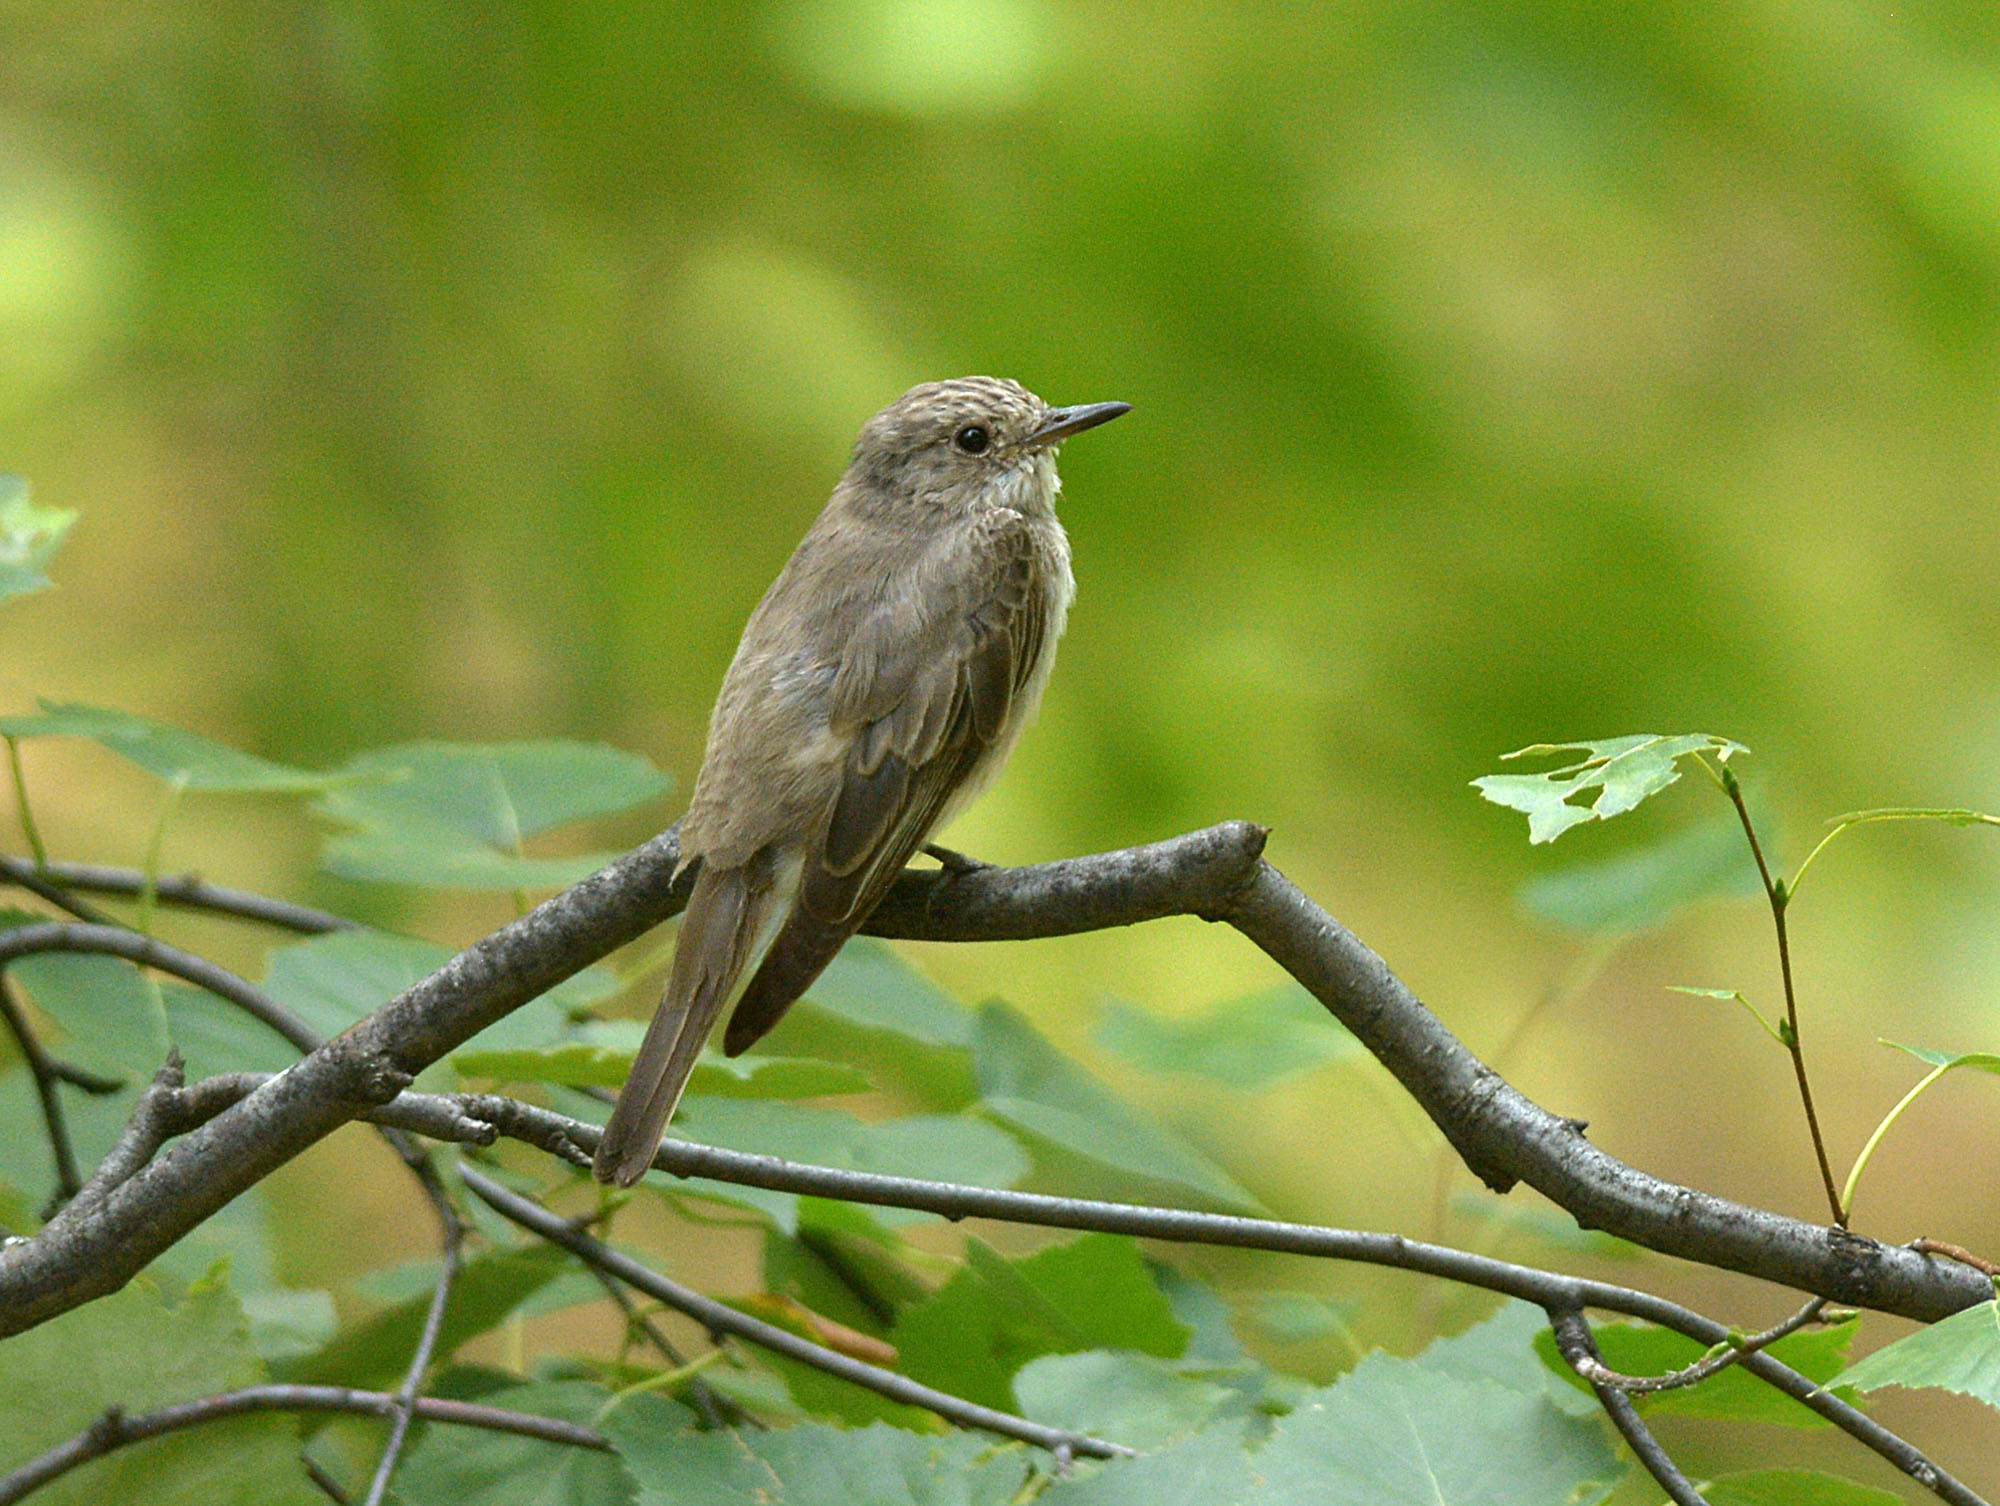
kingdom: Animalia
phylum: Chordata
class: Aves
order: Passeriformes
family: Muscicapidae
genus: Muscicapa
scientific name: Muscicapa striata
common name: Spotted flycatcher
